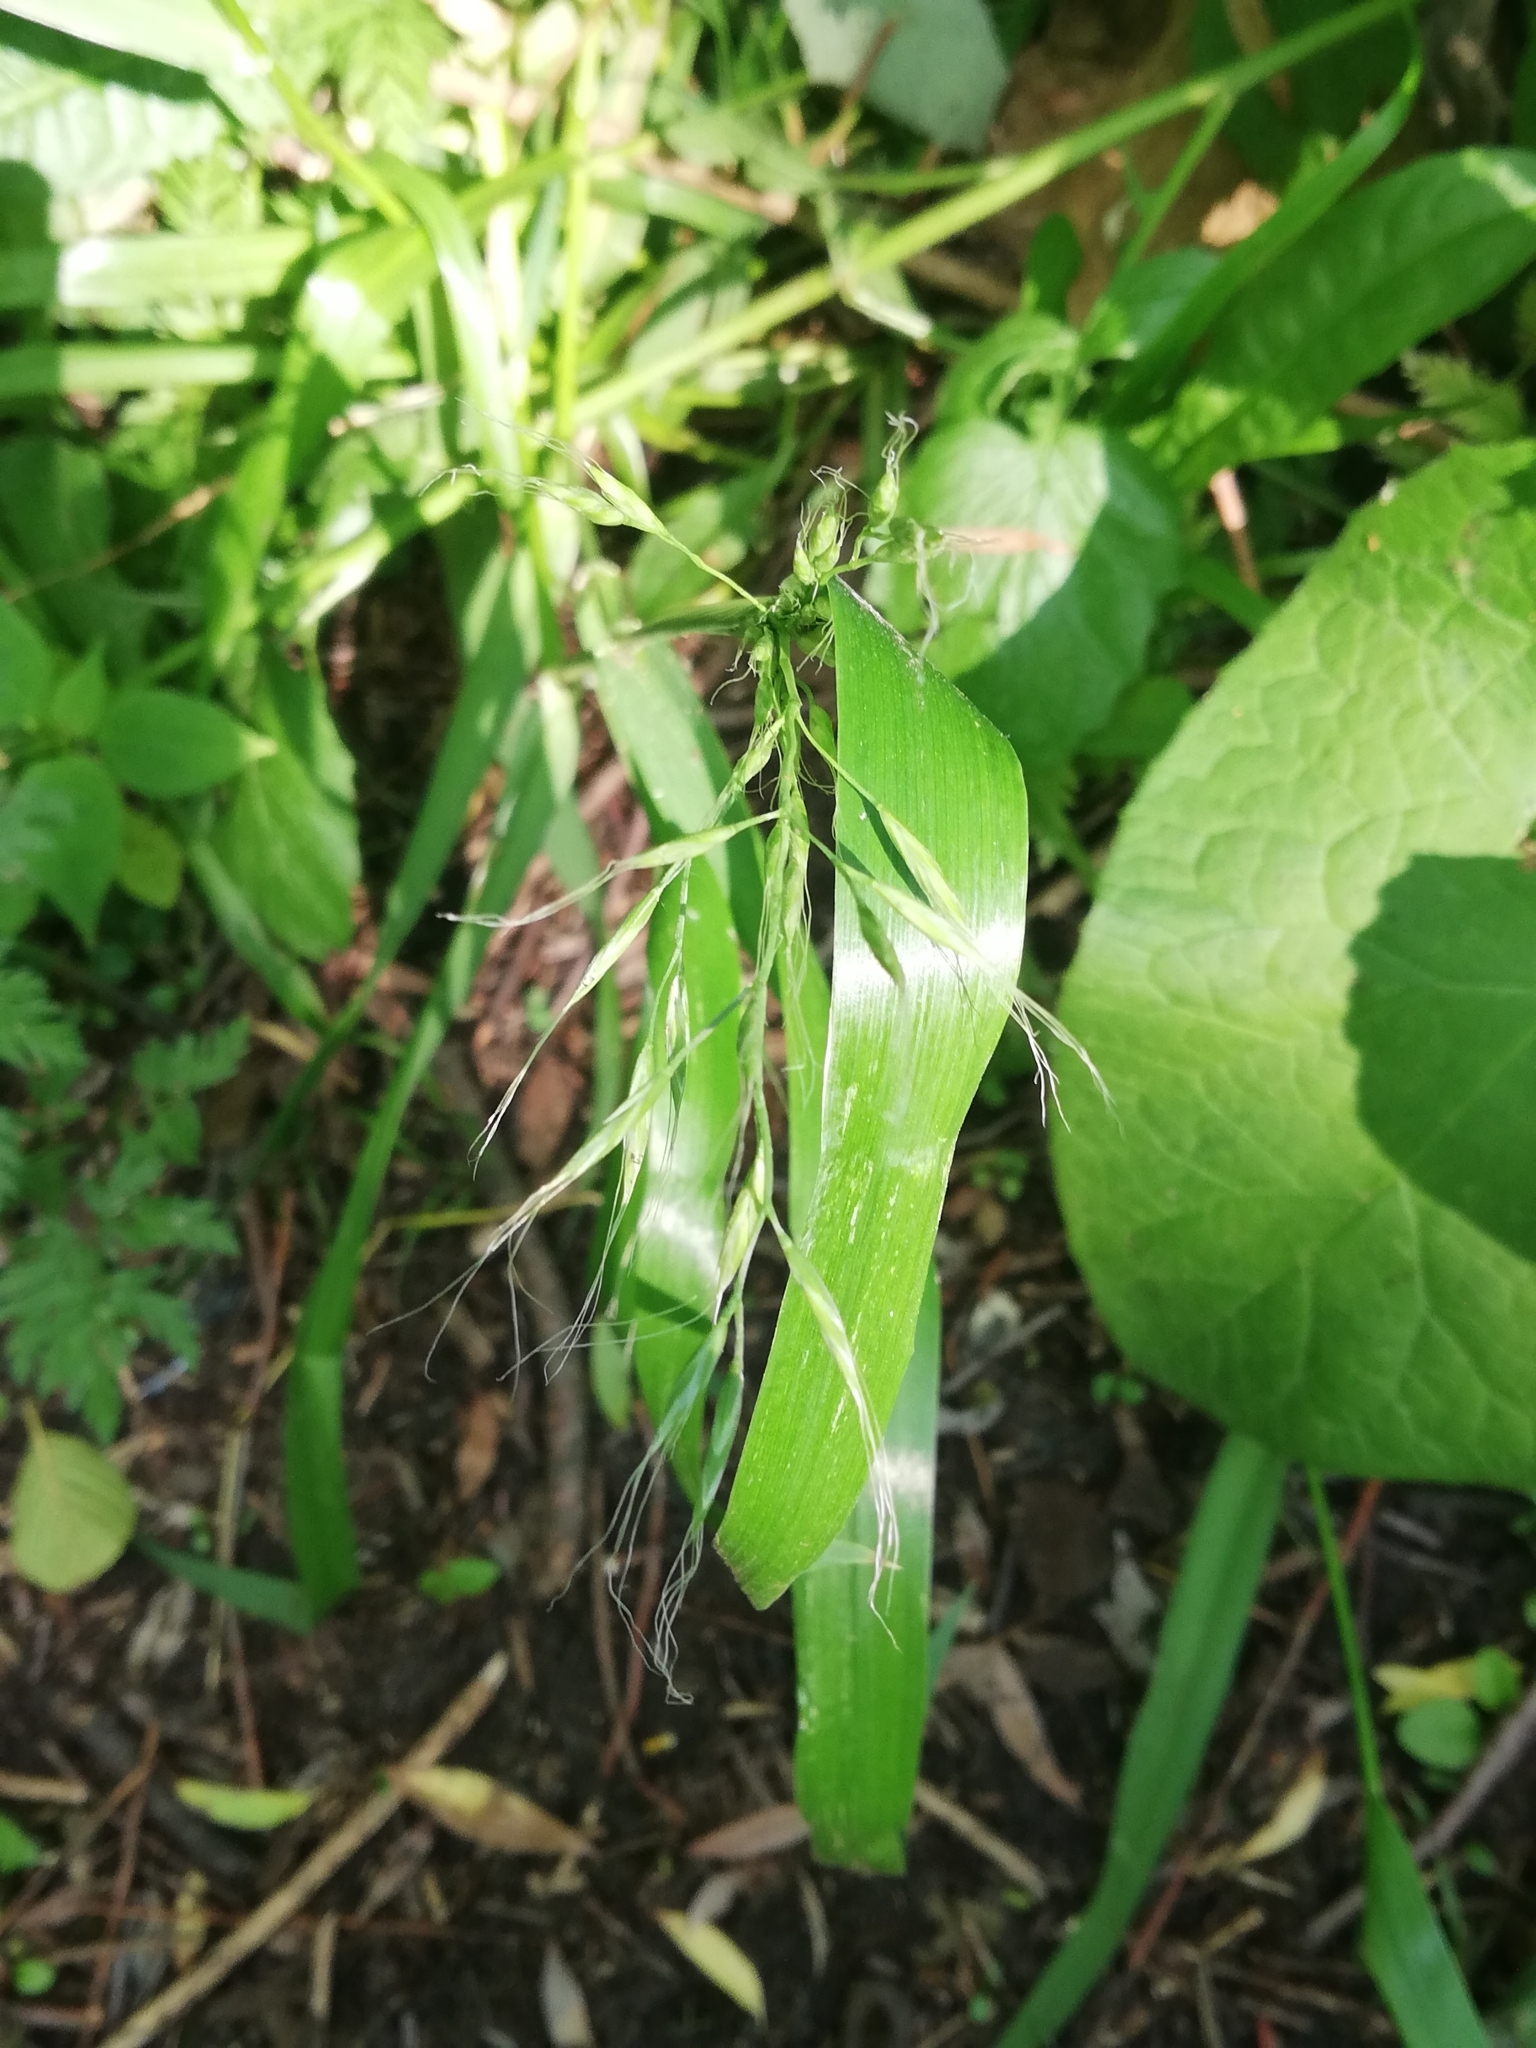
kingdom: Plantae
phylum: Tracheophyta
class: Liliopsida
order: Poales
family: Poaceae
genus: Lolium
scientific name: Lolium giganteum
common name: Giant fescue
